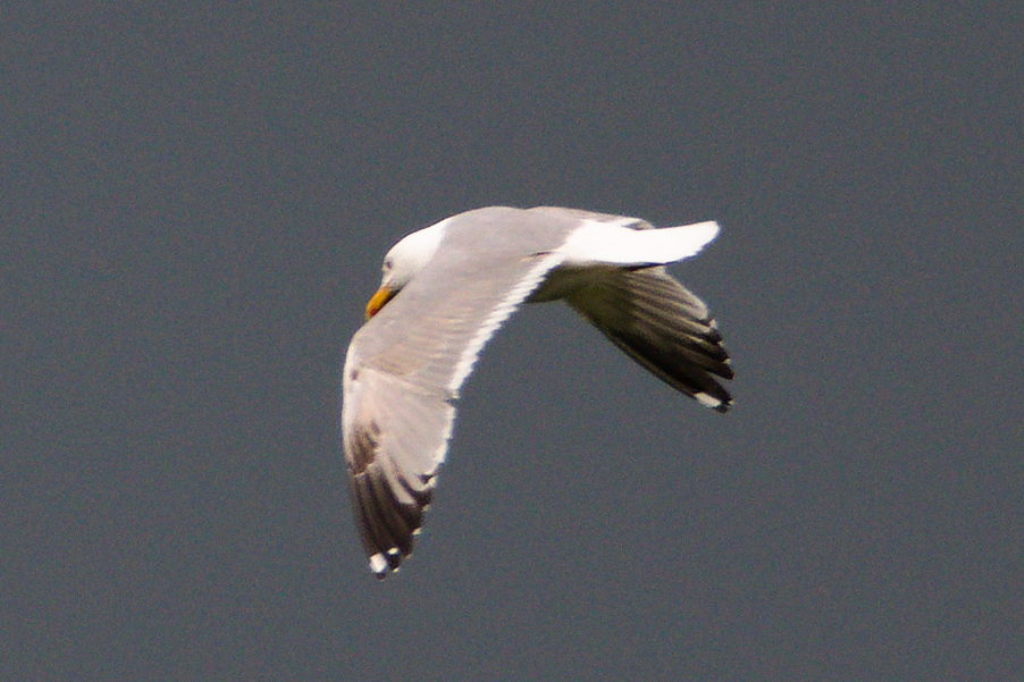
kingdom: Animalia
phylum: Chordata
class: Aves
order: Charadriiformes
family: Laridae
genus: Larus
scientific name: Larus argentatus
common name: Herring gull
